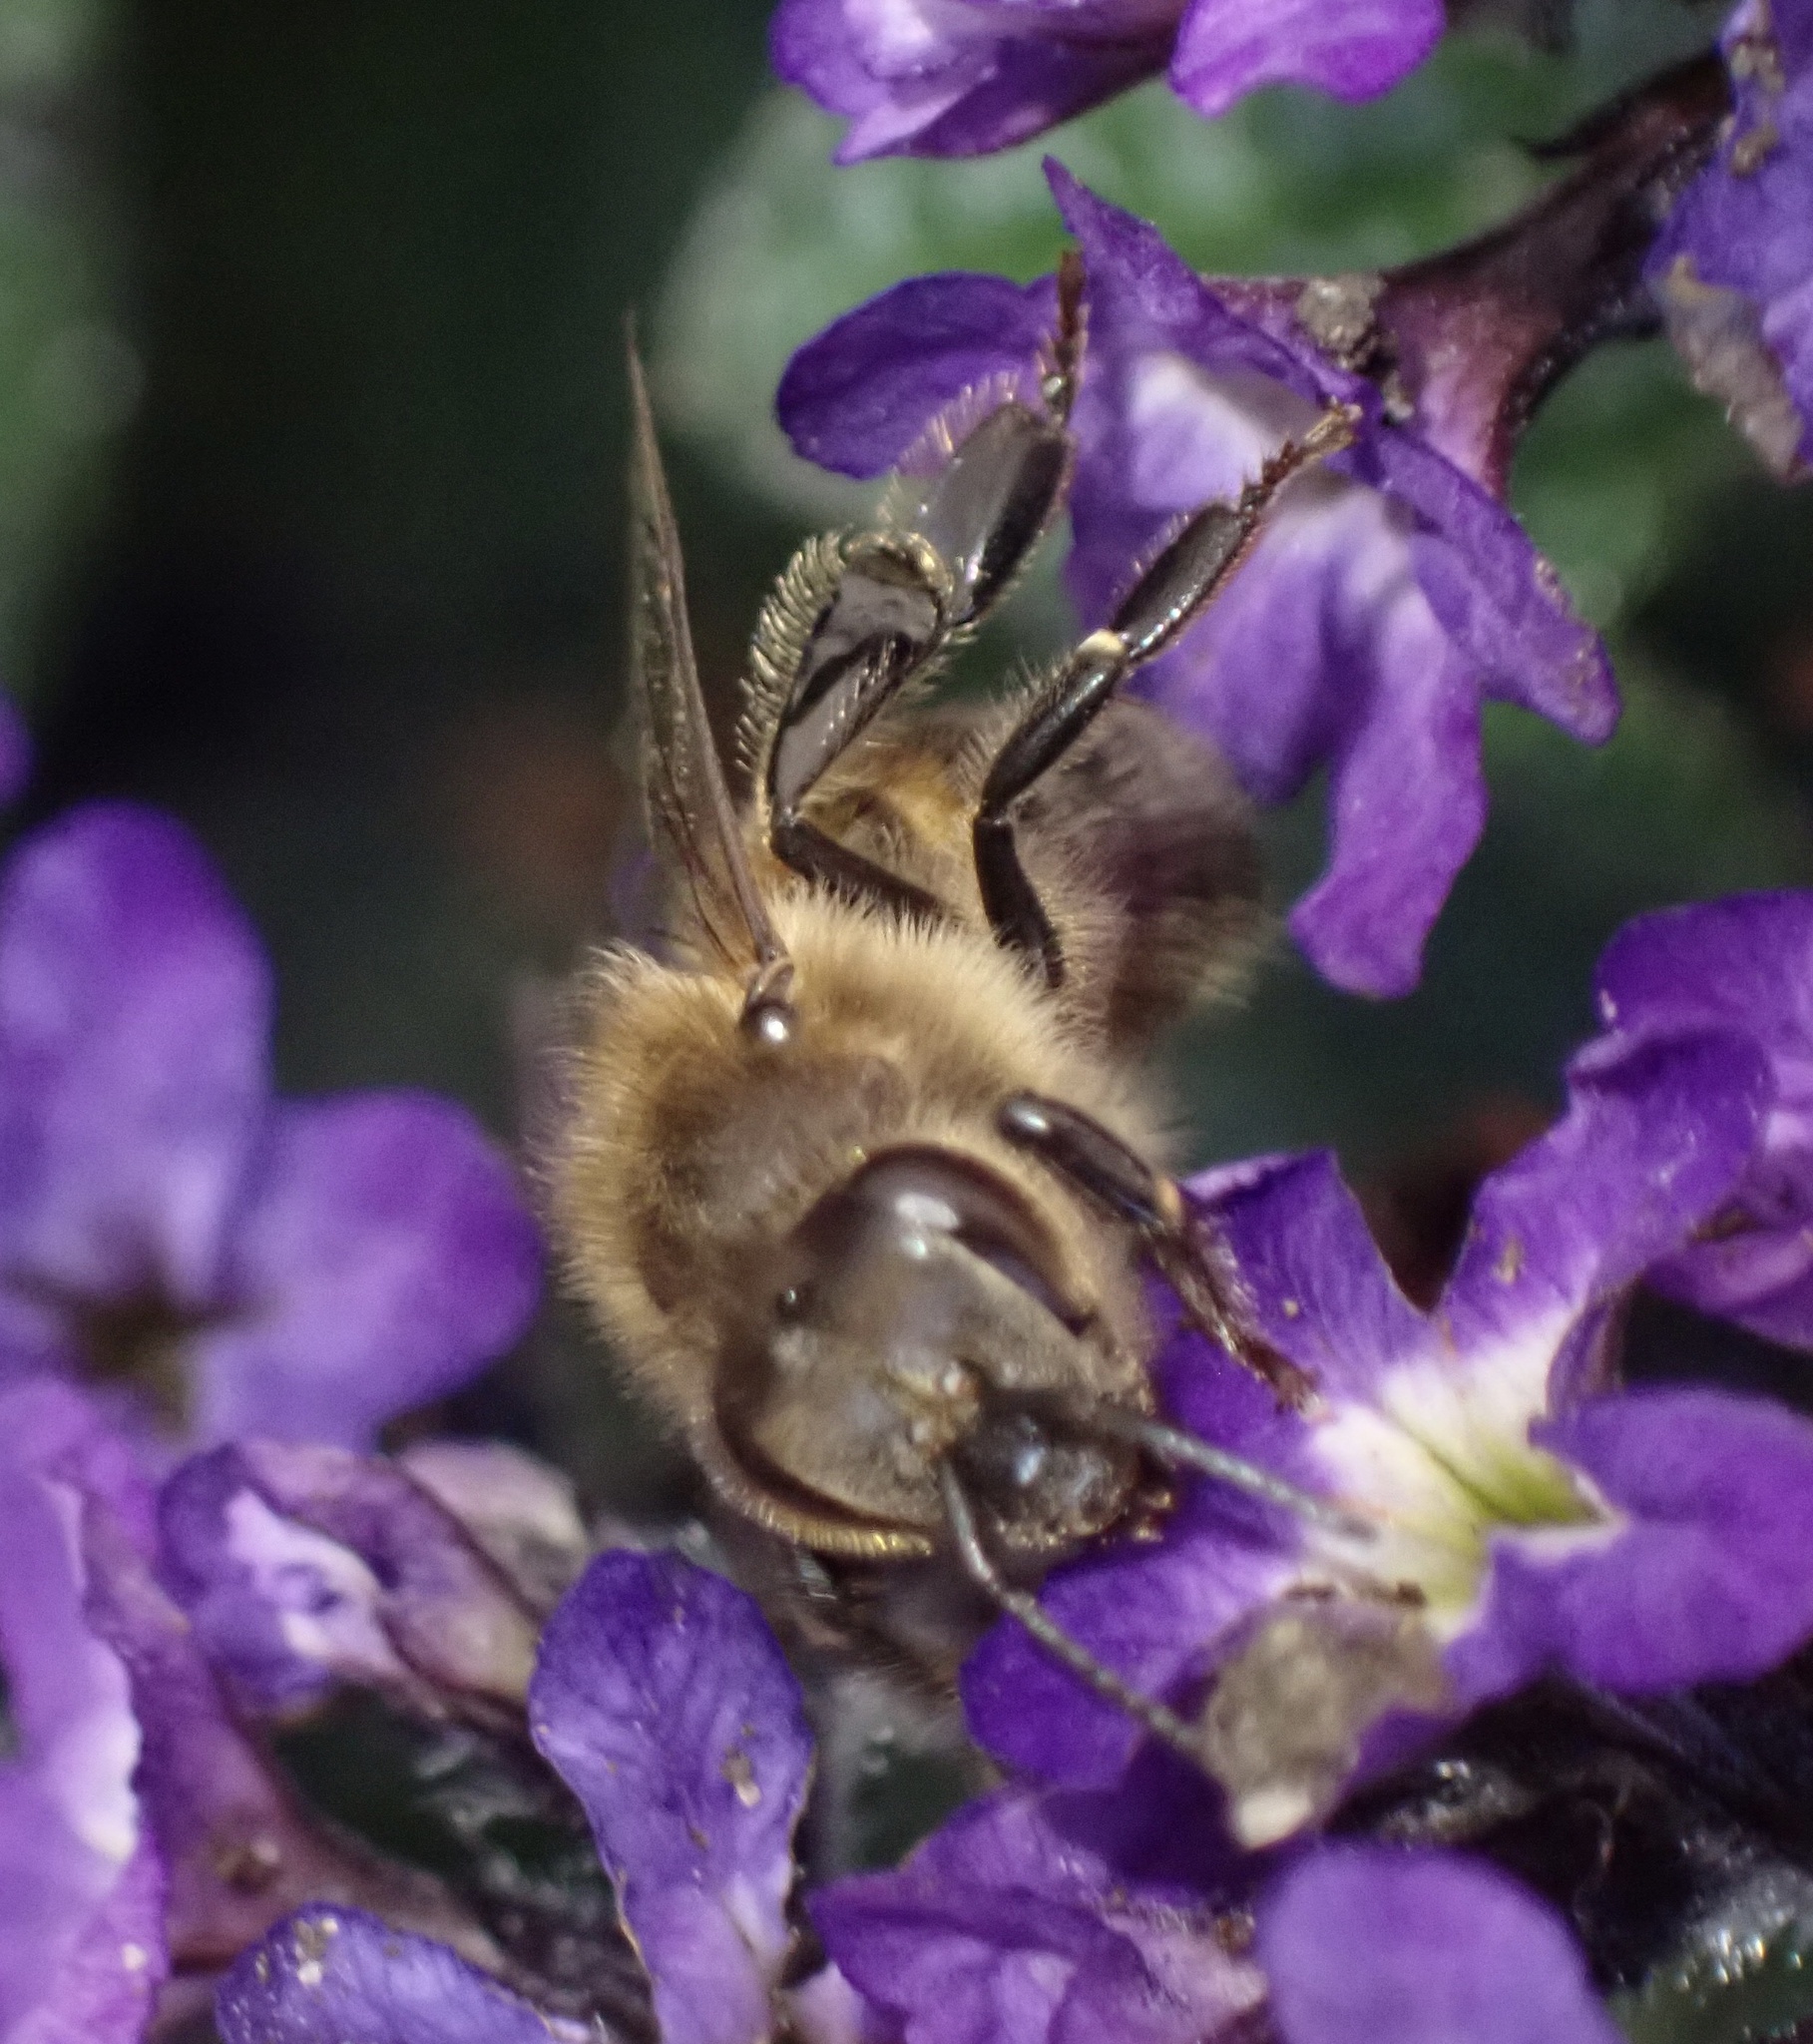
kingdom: Animalia
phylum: Arthropoda
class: Insecta
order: Hymenoptera
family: Apidae
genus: Apis
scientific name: Apis mellifera
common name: Honey bee
